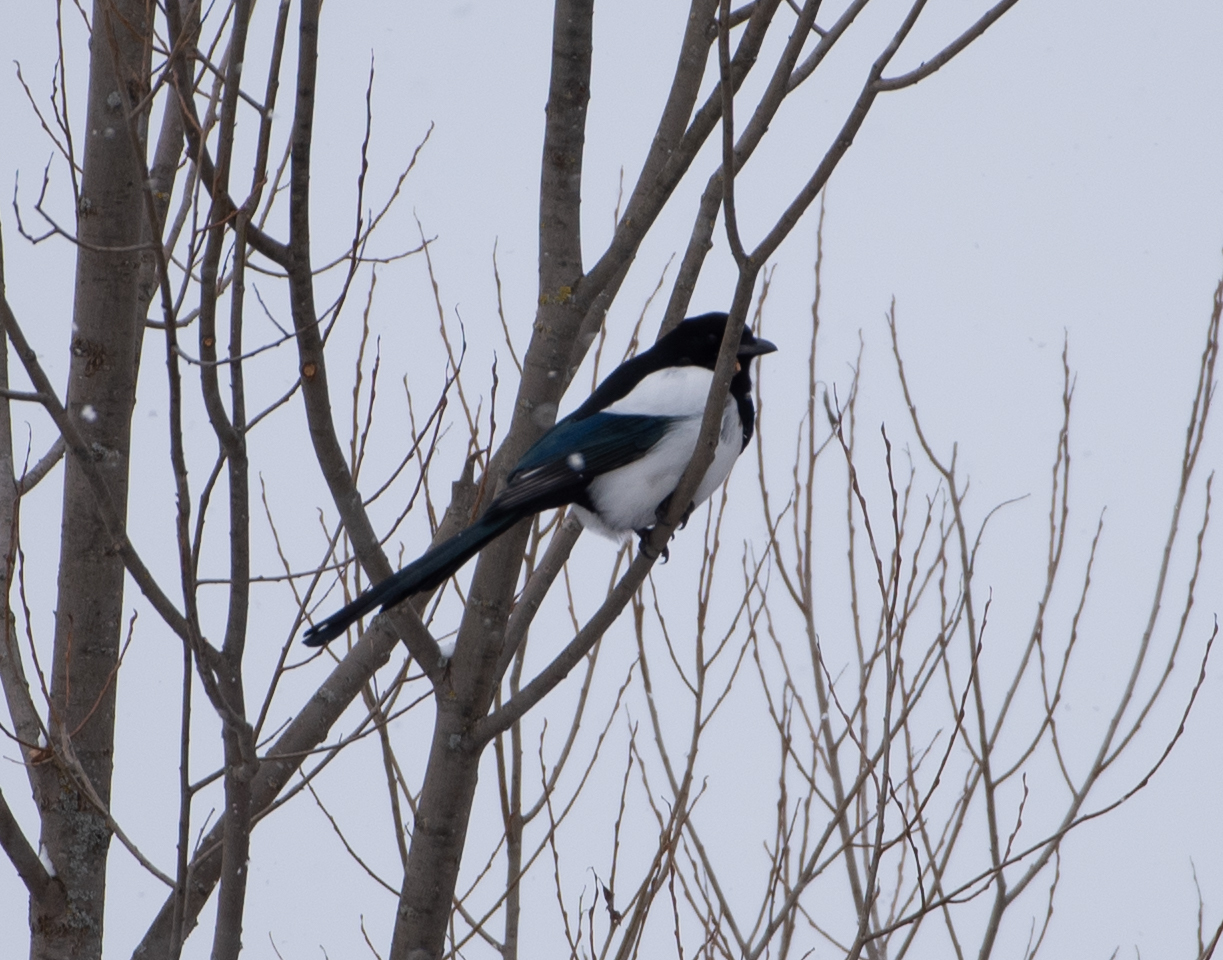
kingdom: Animalia
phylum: Chordata
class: Aves
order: Passeriformes
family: Corvidae
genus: Pica
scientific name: Pica pica
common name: Eurasian magpie
